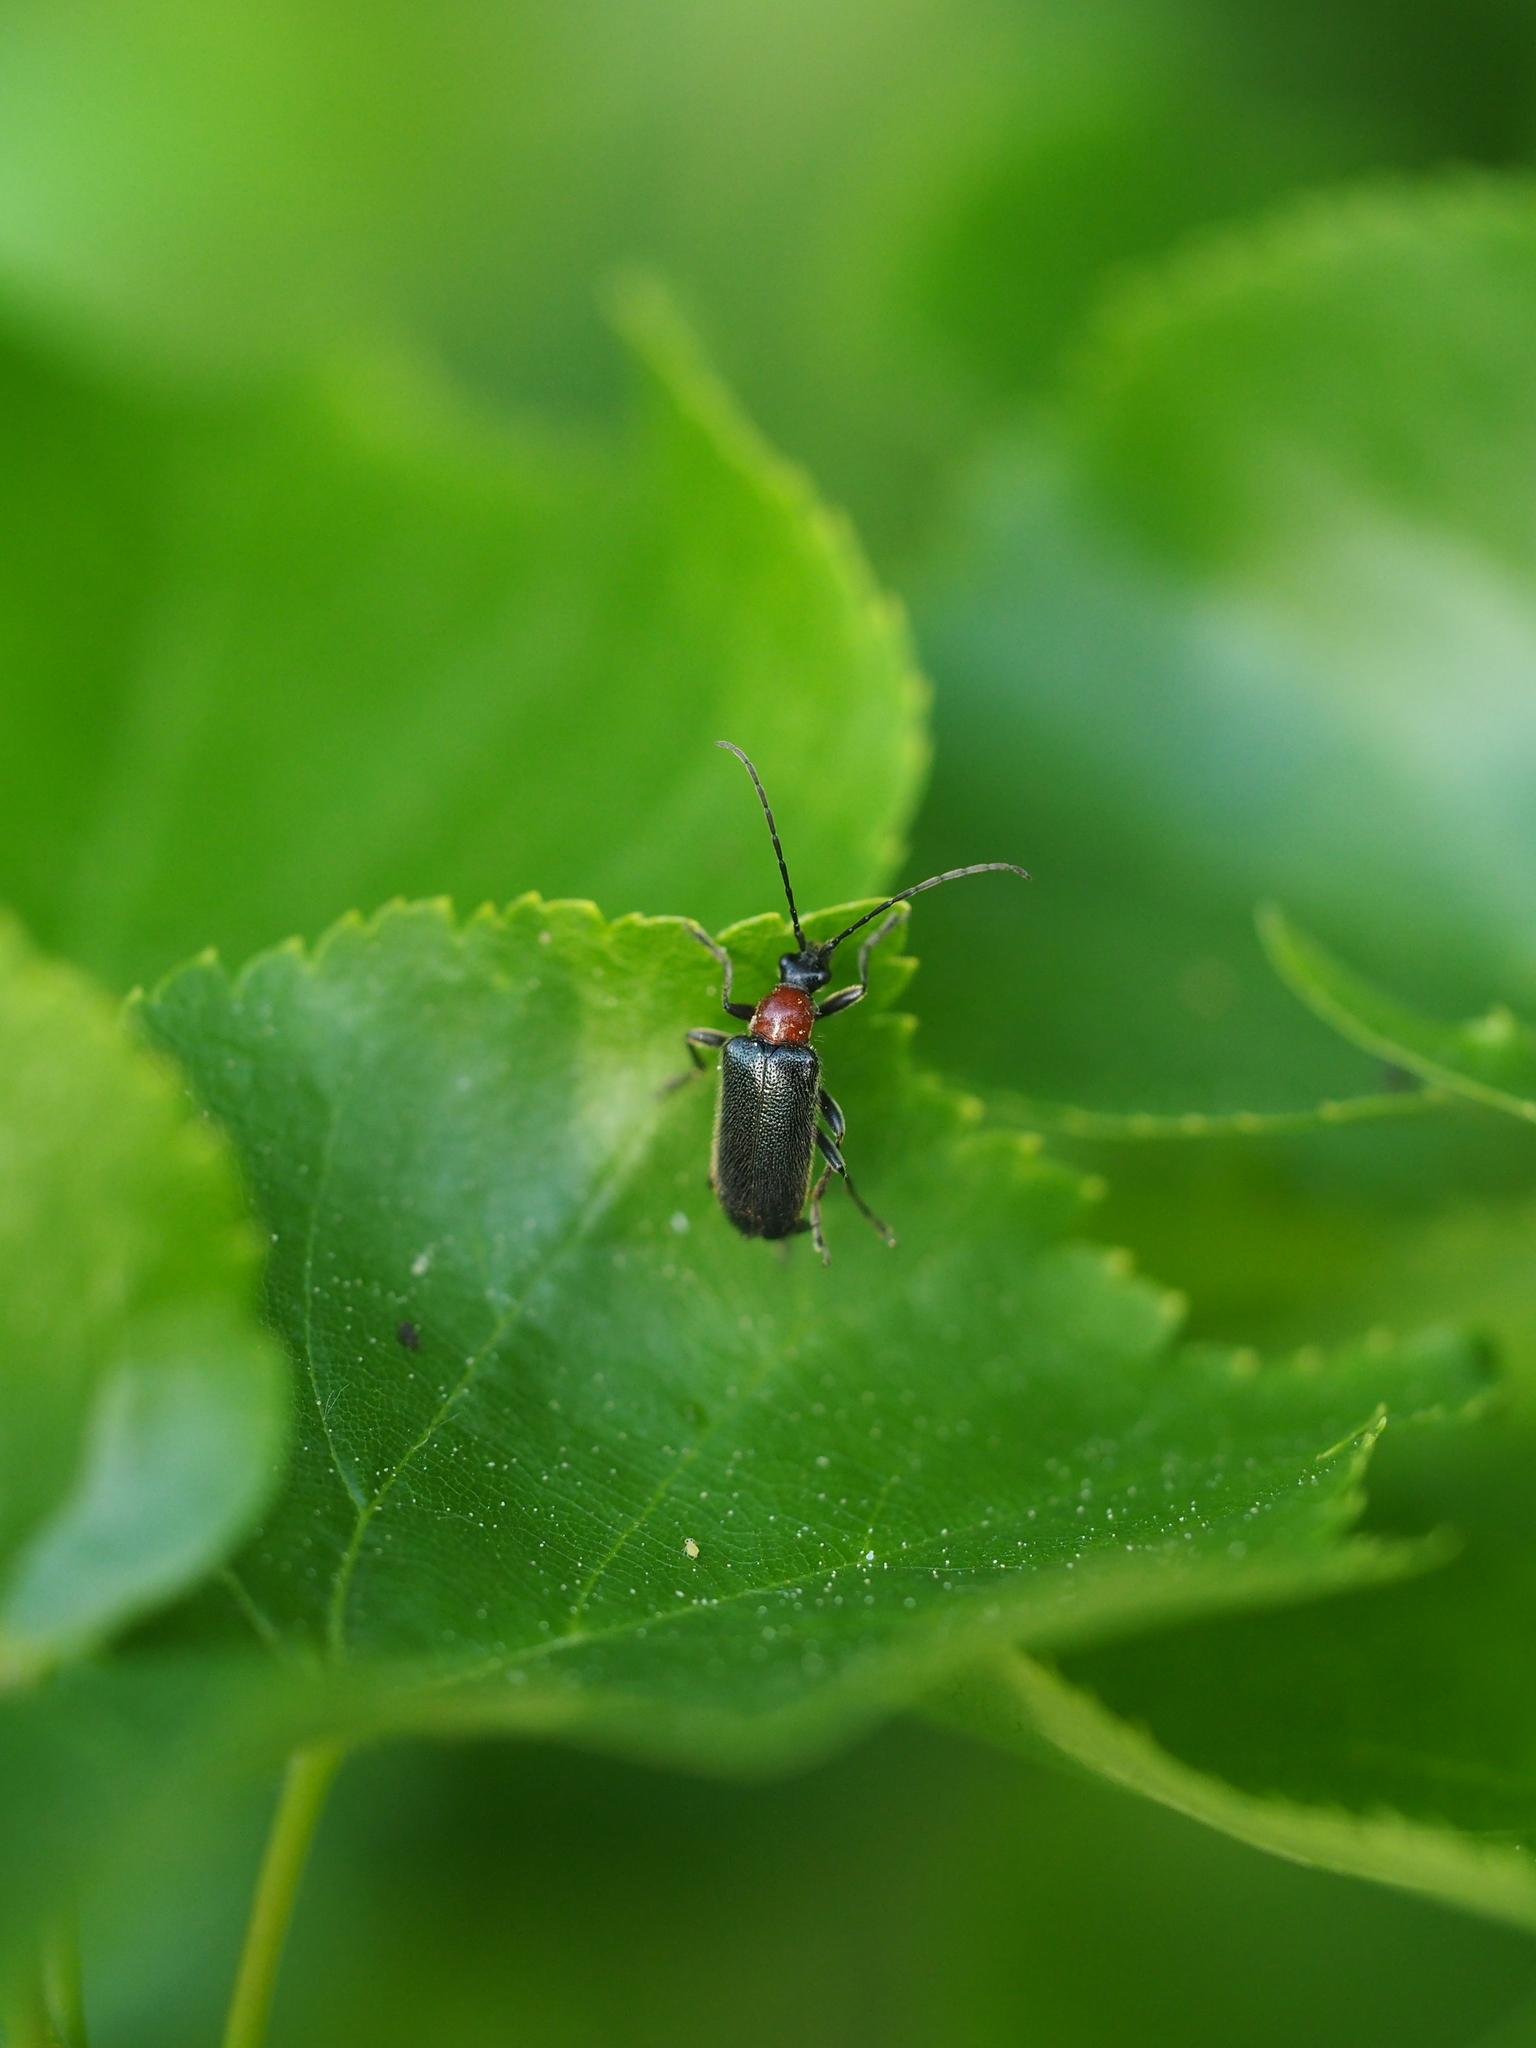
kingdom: Animalia
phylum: Arthropoda
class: Insecta
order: Coleoptera
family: Cerambycidae
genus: Dinoptera
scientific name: Dinoptera collaris
